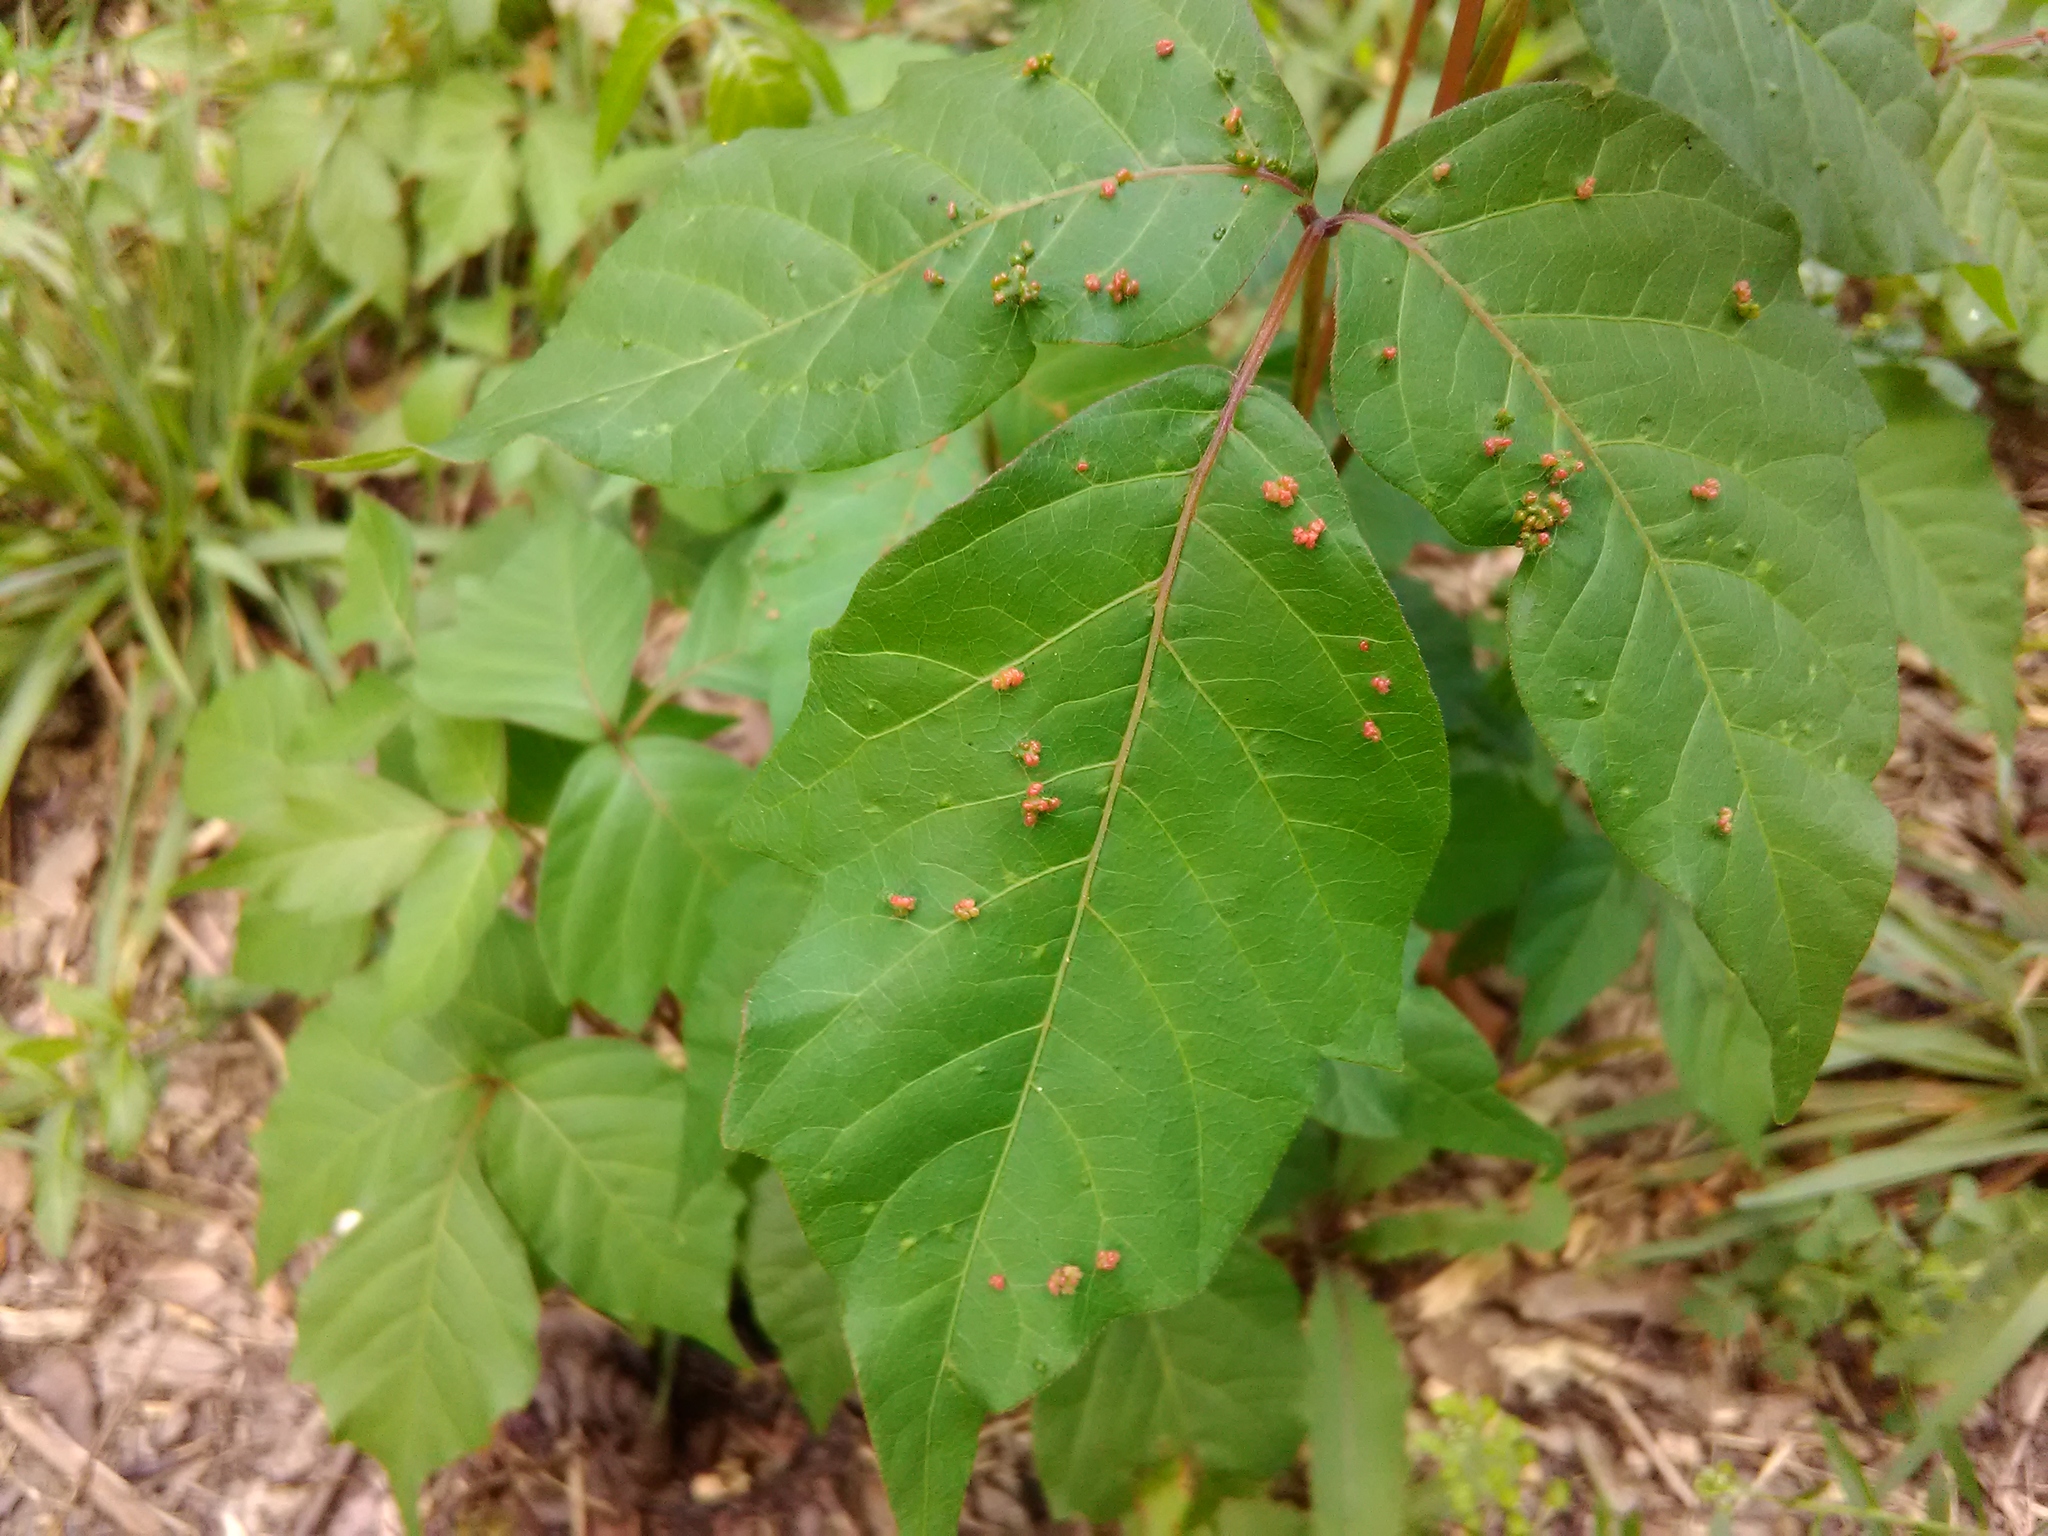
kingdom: Animalia
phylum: Arthropoda
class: Arachnida
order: Trombidiformes
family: Eriophyidae
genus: Aculops
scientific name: Aculops
